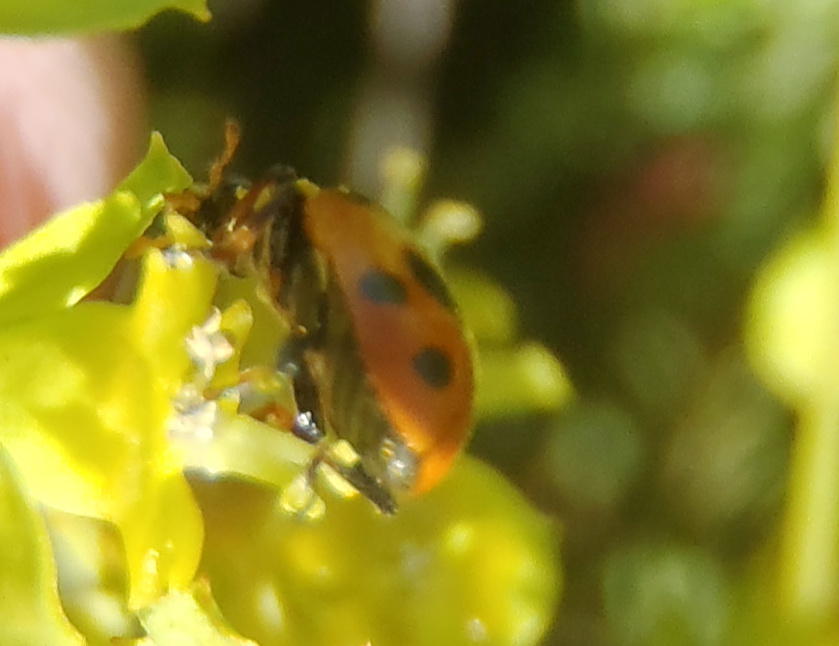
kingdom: Animalia
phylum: Arthropoda
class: Insecta
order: Coleoptera
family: Coccinellidae
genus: Hippodamia
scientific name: Hippodamia variegata
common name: Ladybird beetle
